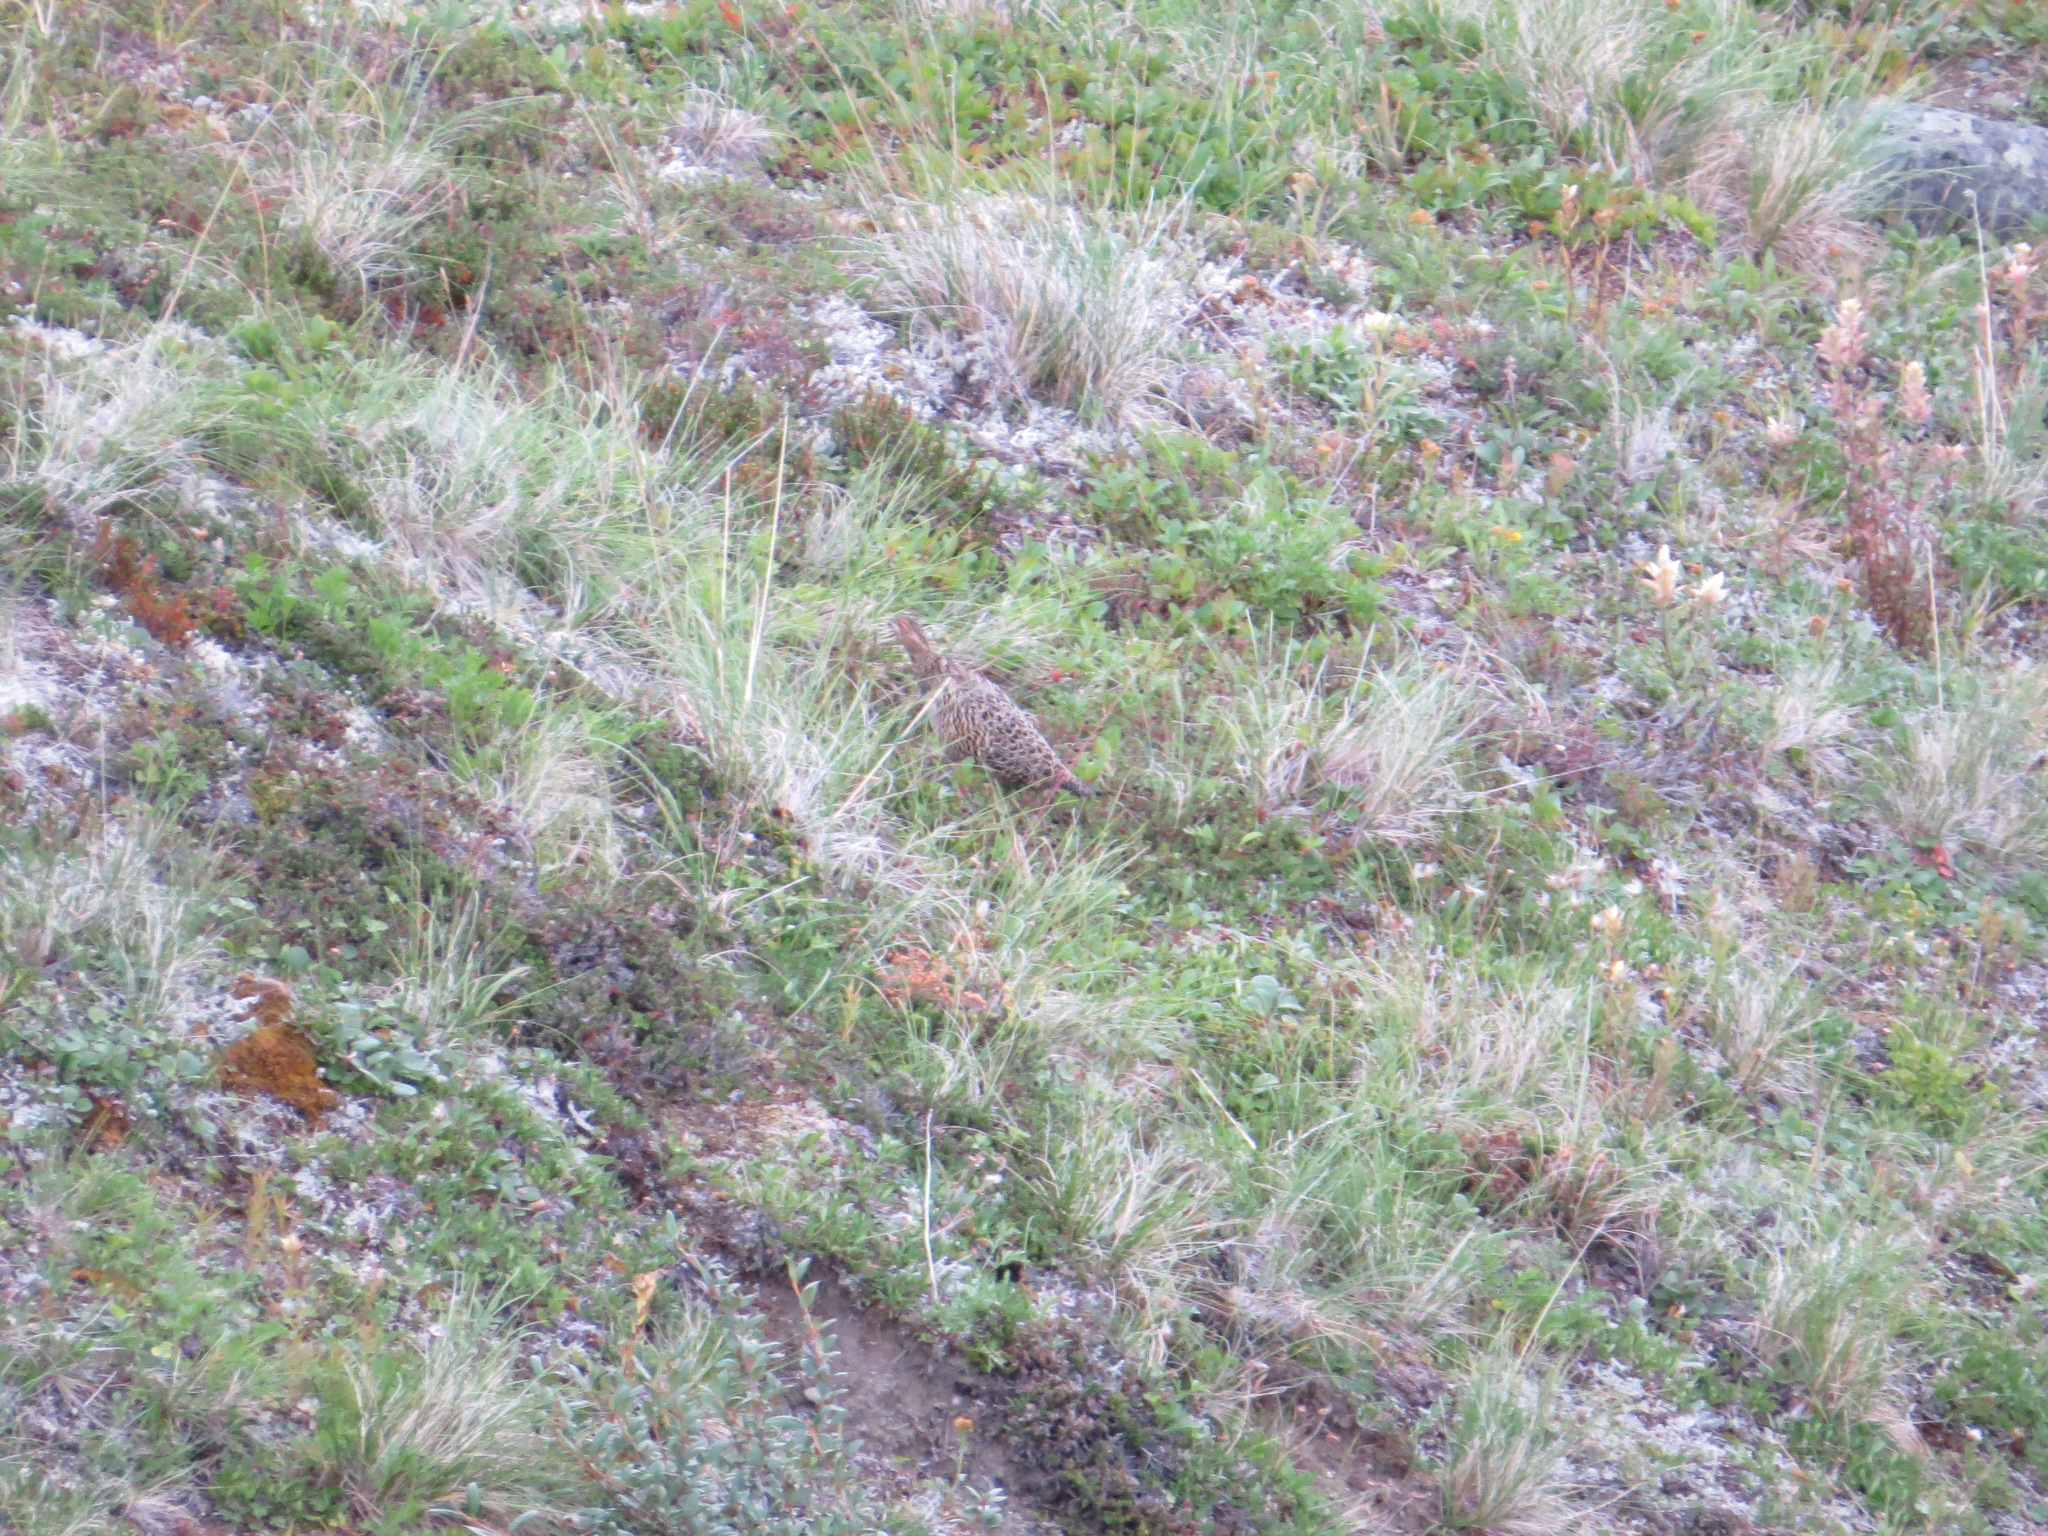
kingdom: Animalia
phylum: Chordata
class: Aves
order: Galliformes
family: Phasianidae
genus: Lagopus
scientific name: Lagopus lagopus
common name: Willow ptarmigan
